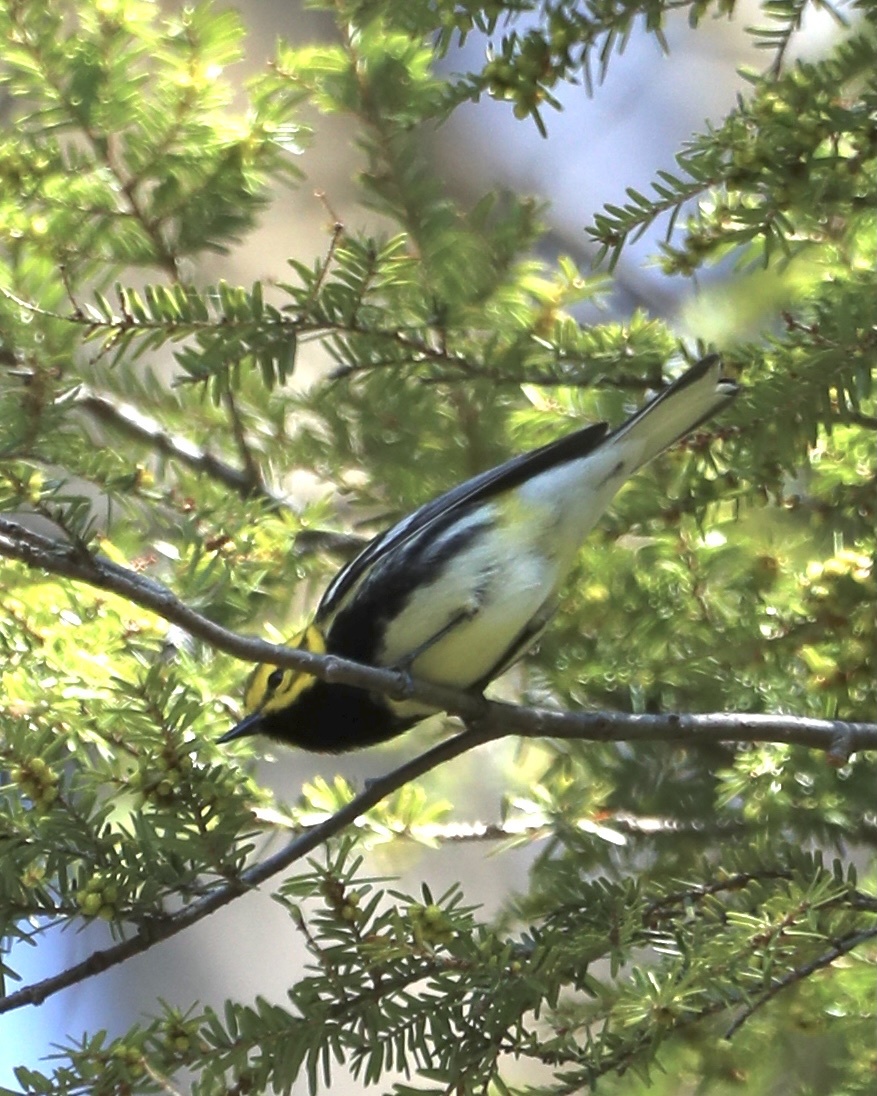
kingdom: Animalia
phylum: Chordata
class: Aves
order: Passeriformes
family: Parulidae
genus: Setophaga
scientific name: Setophaga virens
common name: Black-throated green warbler
